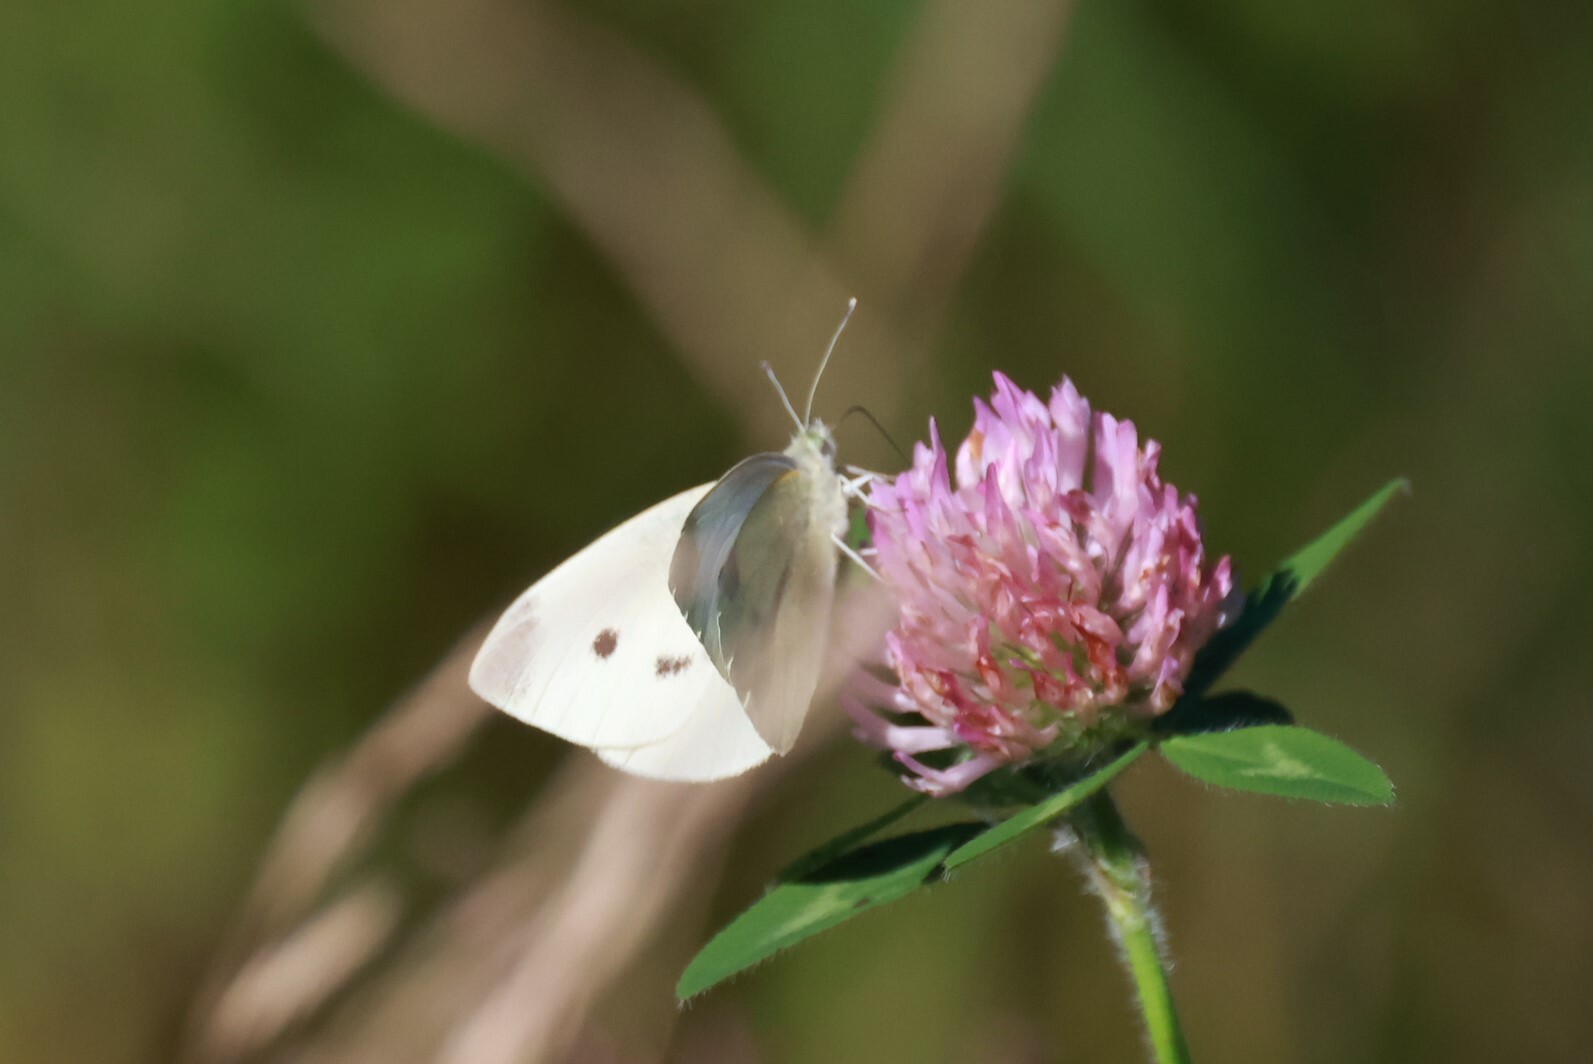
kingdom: Animalia
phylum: Arthropoda
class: Insecta
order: Lepidoptera
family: Pieridae
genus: Pieris
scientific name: Pieris rapae
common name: Small white
